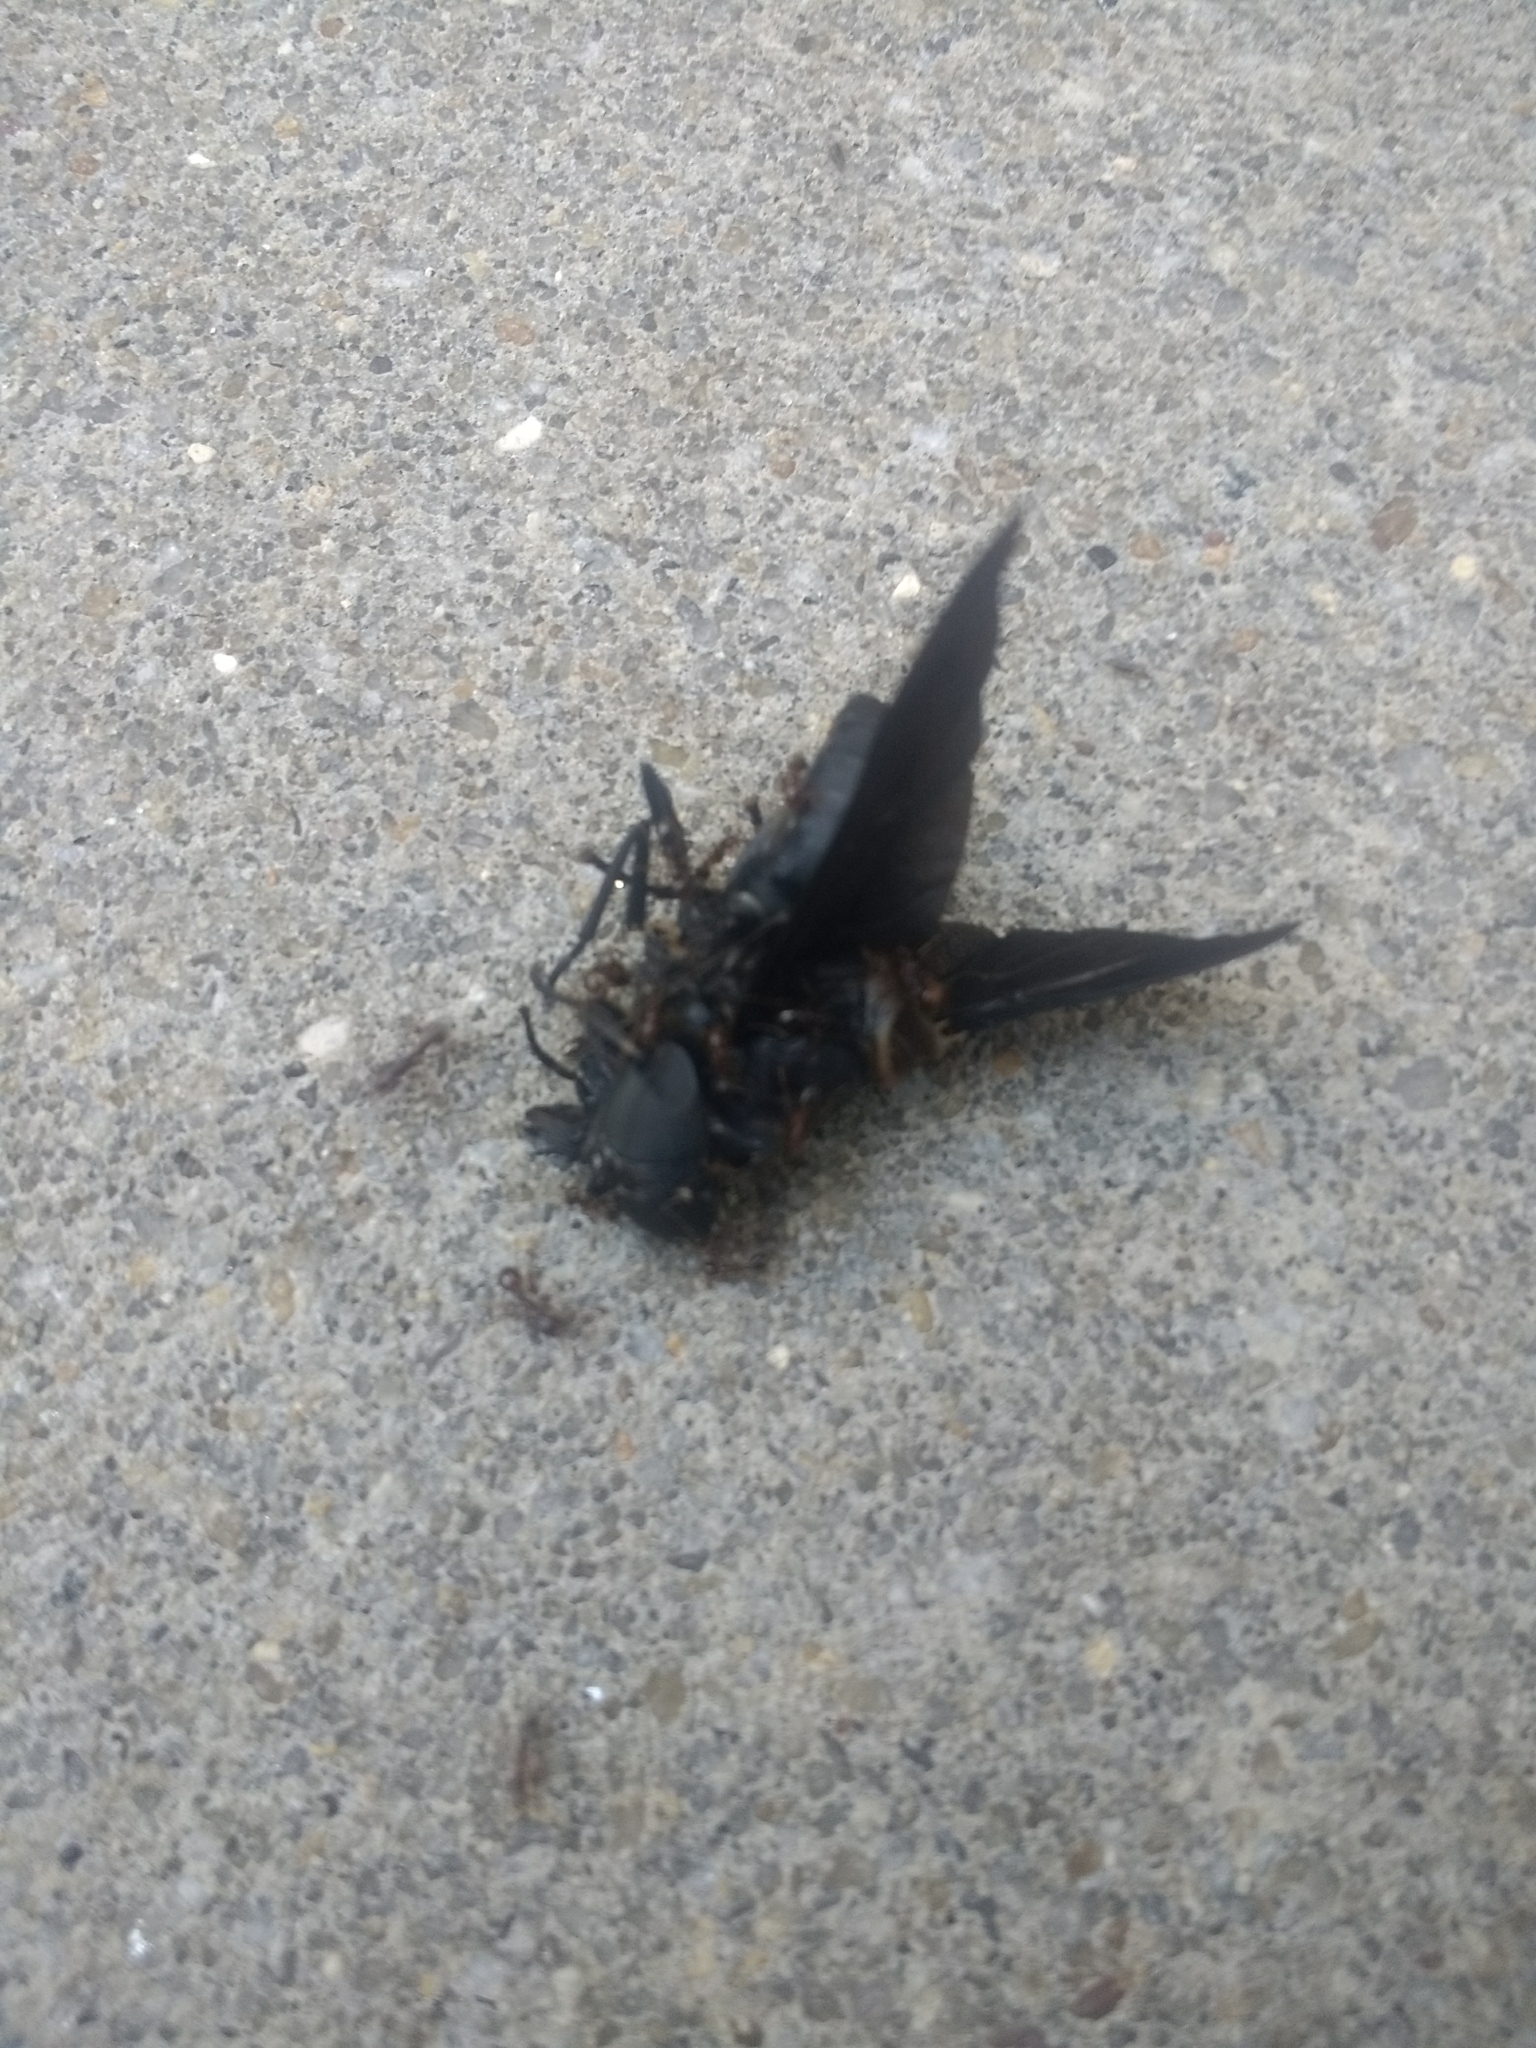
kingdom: Animalia
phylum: Arthropoda
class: Insecta
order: Diptera
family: Tabanidae
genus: Tabanus
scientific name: Tabanus atratus
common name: Black horse fly
